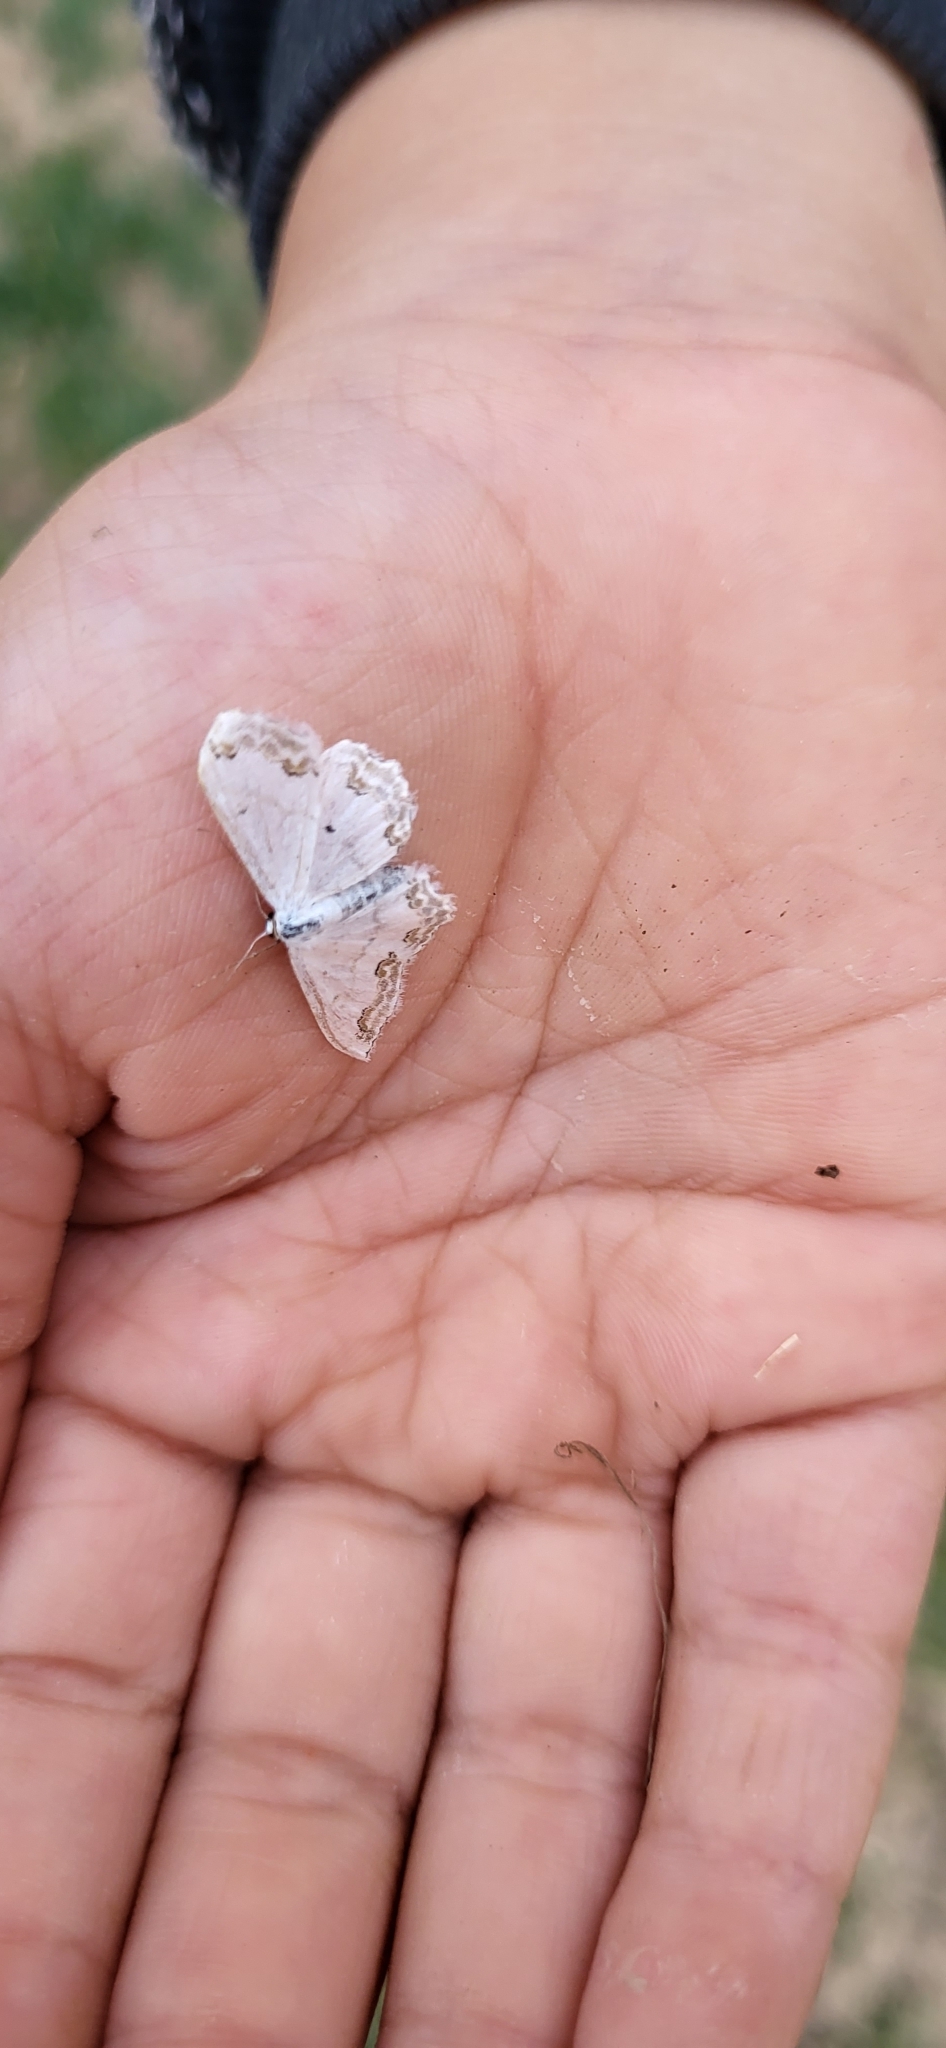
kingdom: Animalia
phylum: Arthropoda
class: Insecta
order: Lepidoptera
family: Geometridae
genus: Scopula
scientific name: Scopula ornata
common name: Lace border
